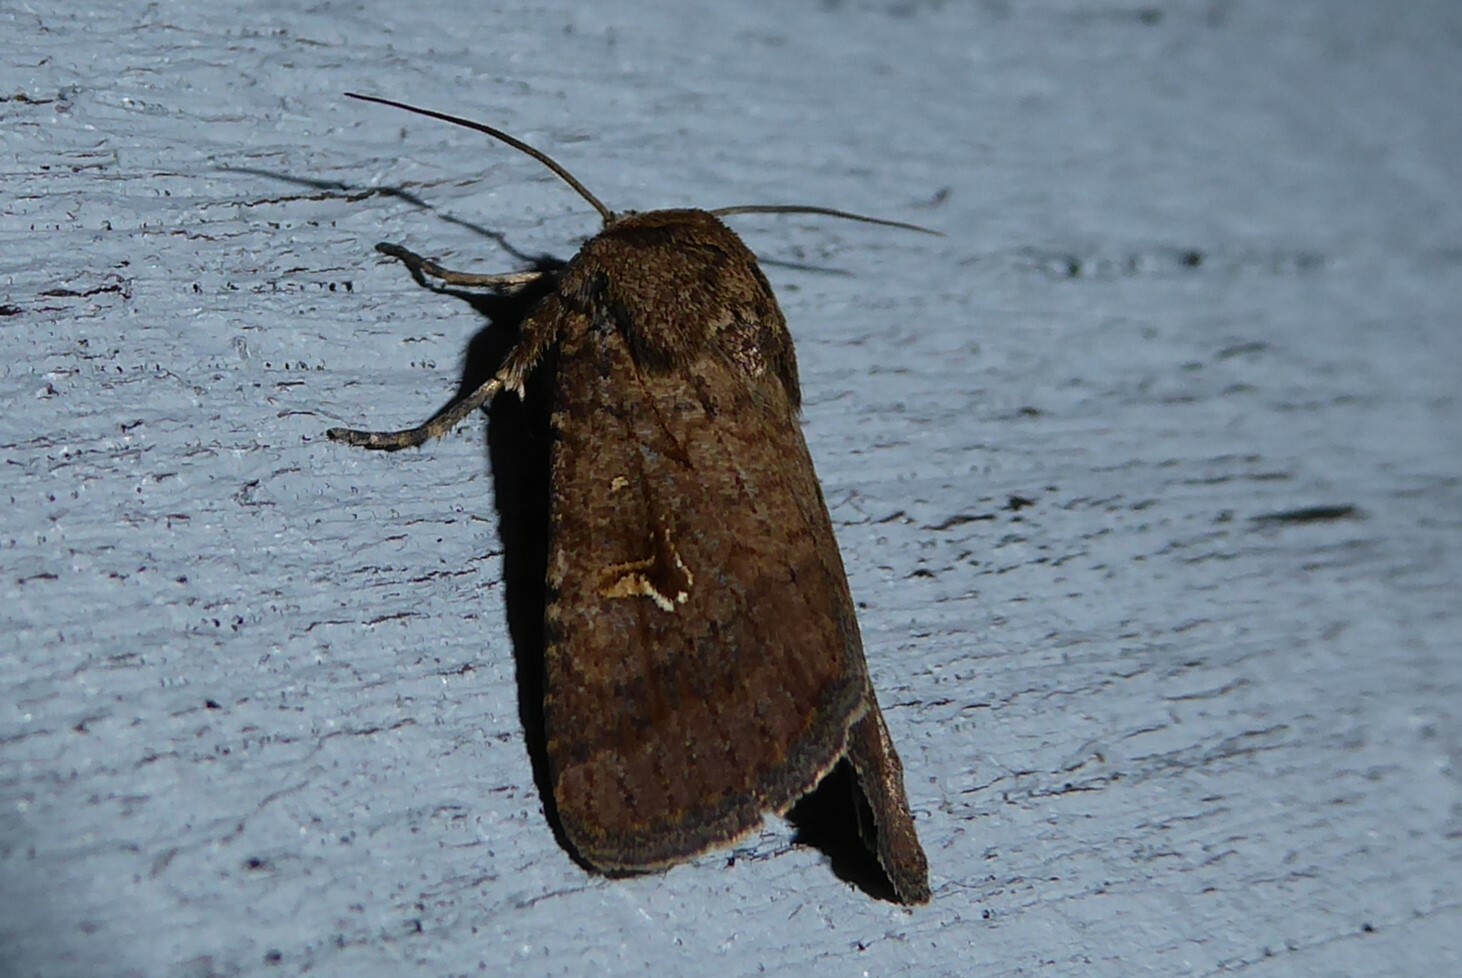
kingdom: Animalia
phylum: Arthropoda
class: Insecta
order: Lepidoptera
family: Noctuidae
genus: Proteuxoa
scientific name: Proteuxoa tetronycha
